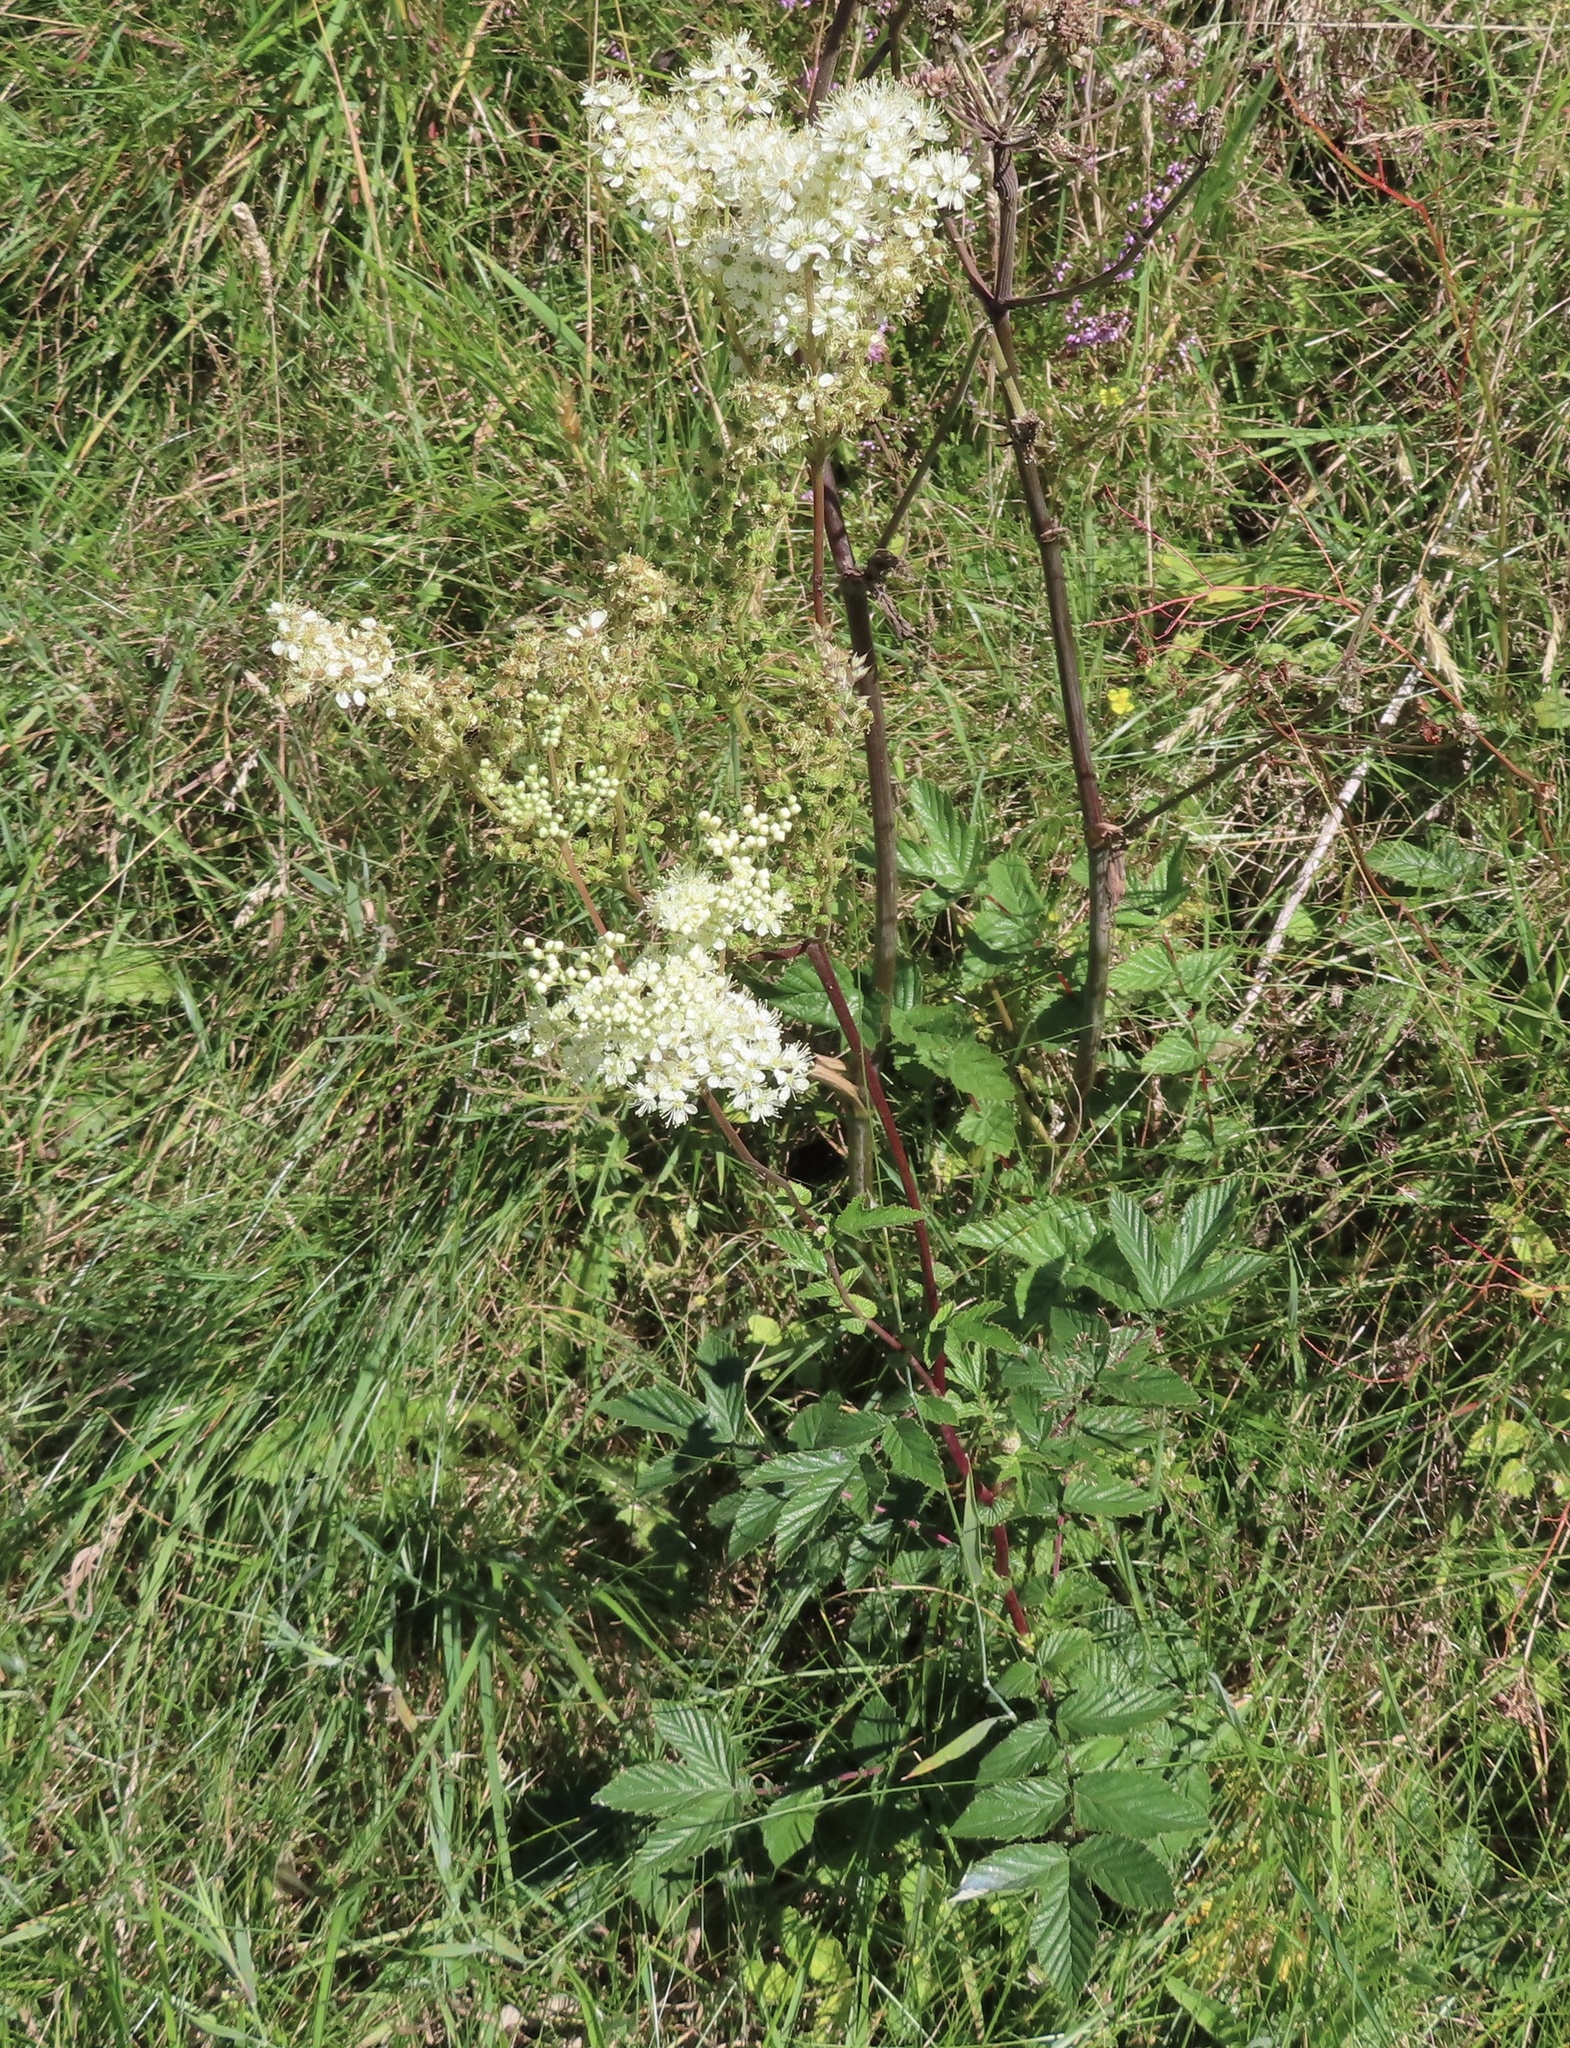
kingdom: Plantae
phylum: Tracheophyta
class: Magnoliopsida
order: Rosales
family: Rosaceae
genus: Filipendula
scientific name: Filipendula ulmaria
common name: Meadowsweet
